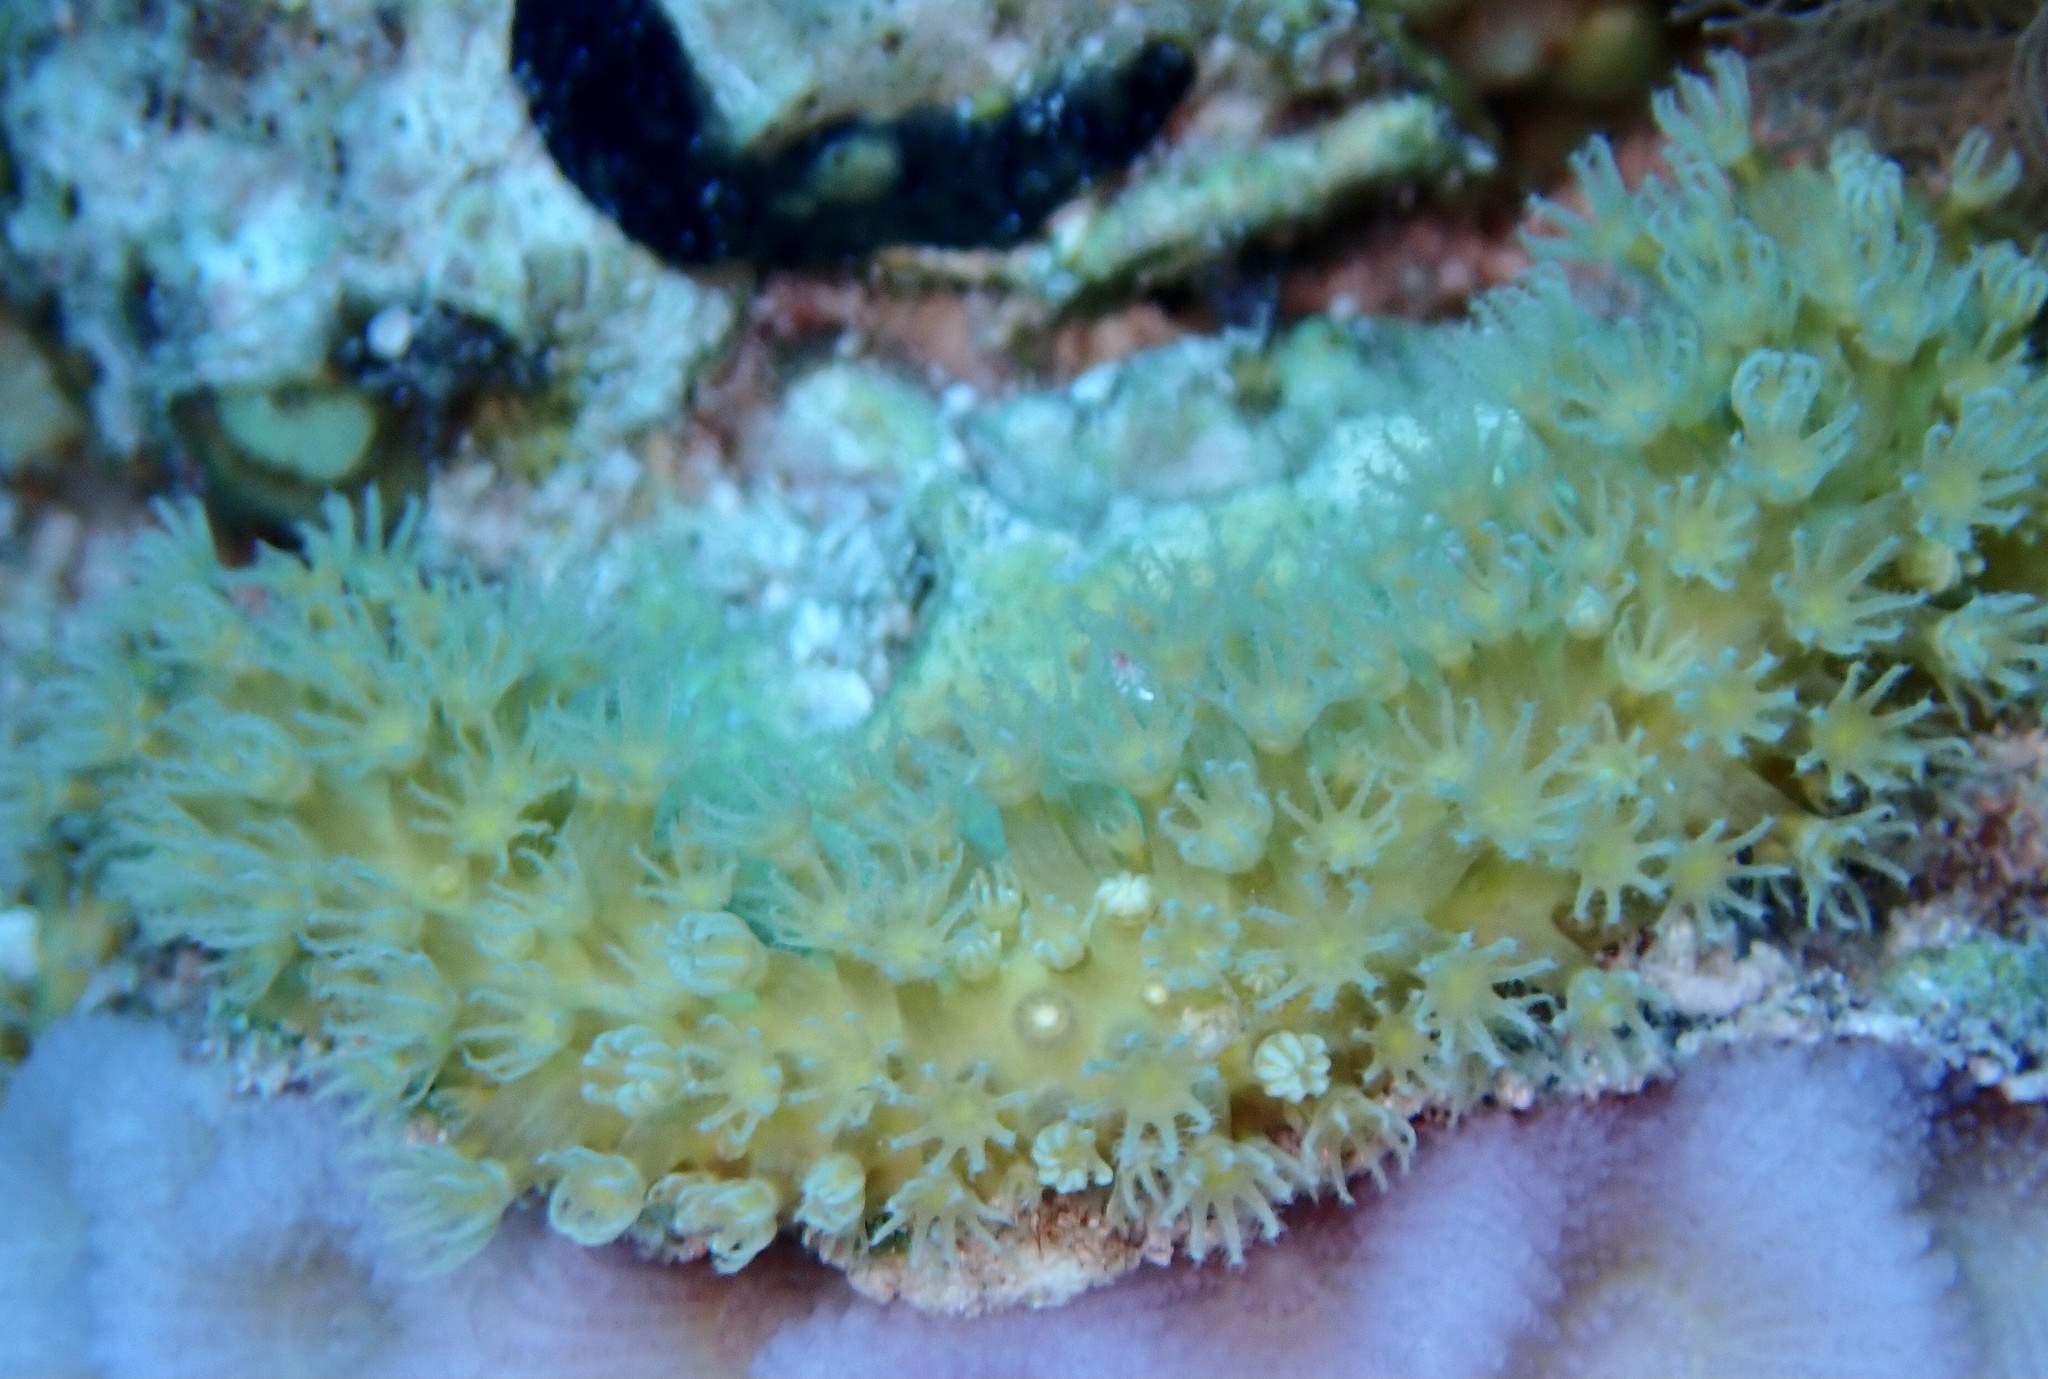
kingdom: Animalia
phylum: Cnidaria
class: Anthozoa
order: Malacalcyonacea
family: Lemnaliadae
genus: Rhytisma
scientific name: Rhytisma fulvum
